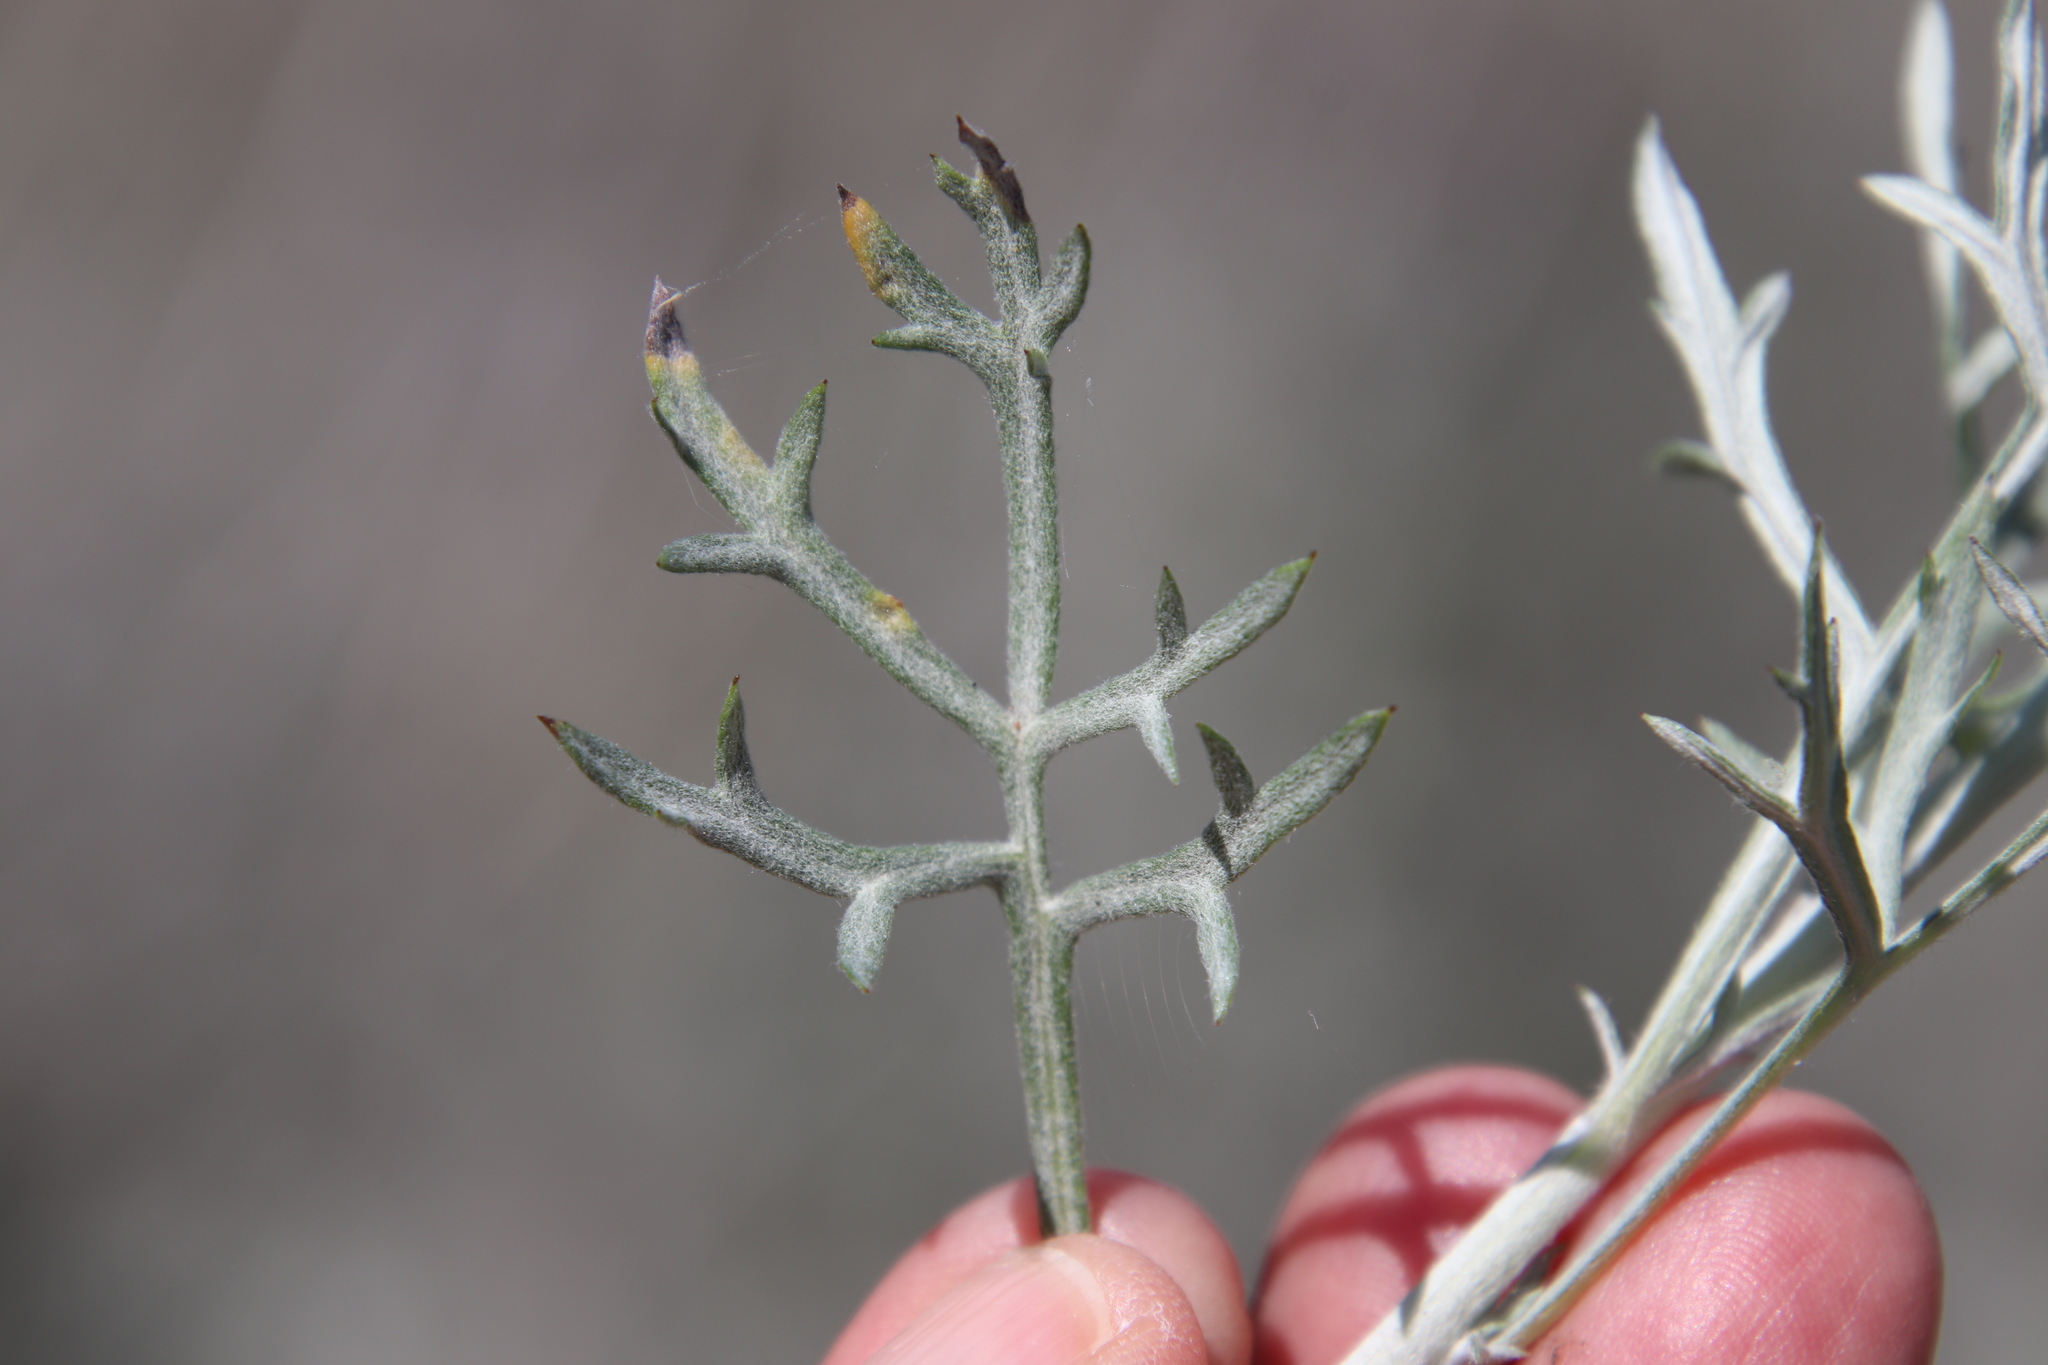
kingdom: Plantae
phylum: Tracheophyta
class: Magnoliopsida
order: Asterales
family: Asteraceae
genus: Artemisia
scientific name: Artemisia ludoviciana
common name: Western mugwort
